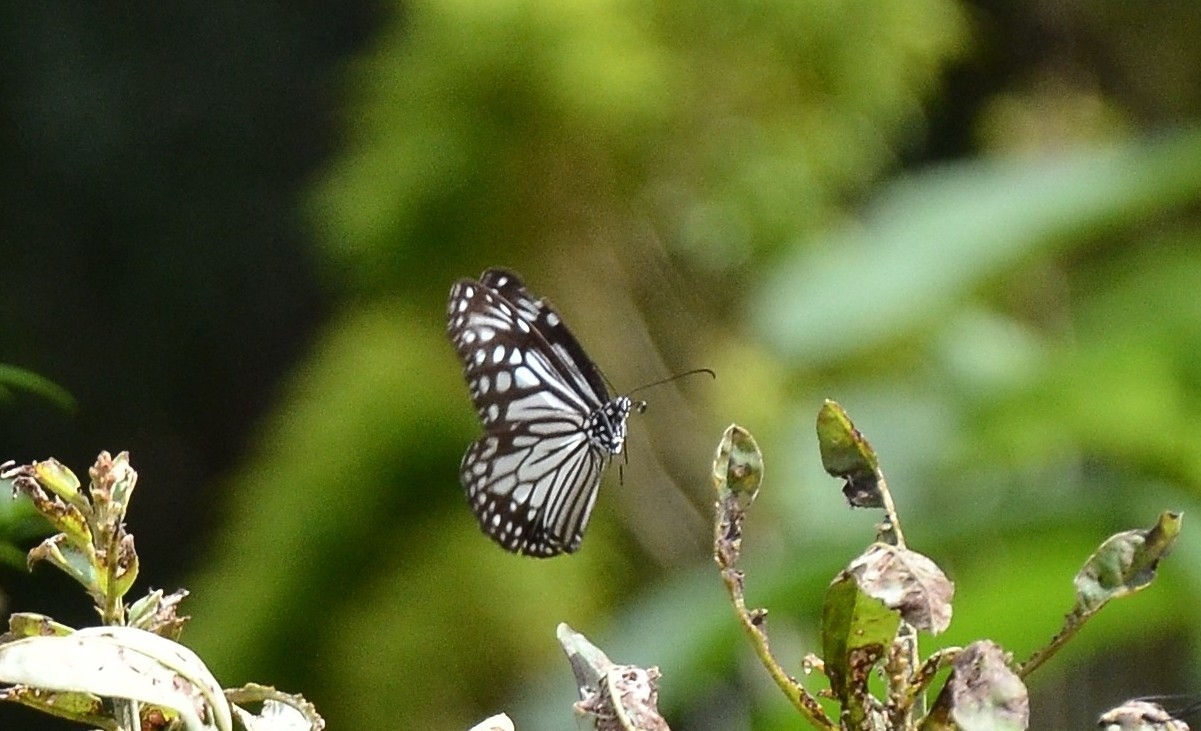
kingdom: Animalia
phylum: Arthropoda
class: Insecta
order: Lepidoptera
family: Nymphalidae
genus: Parantica
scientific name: Parantica aglea
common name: Glassy tiger
